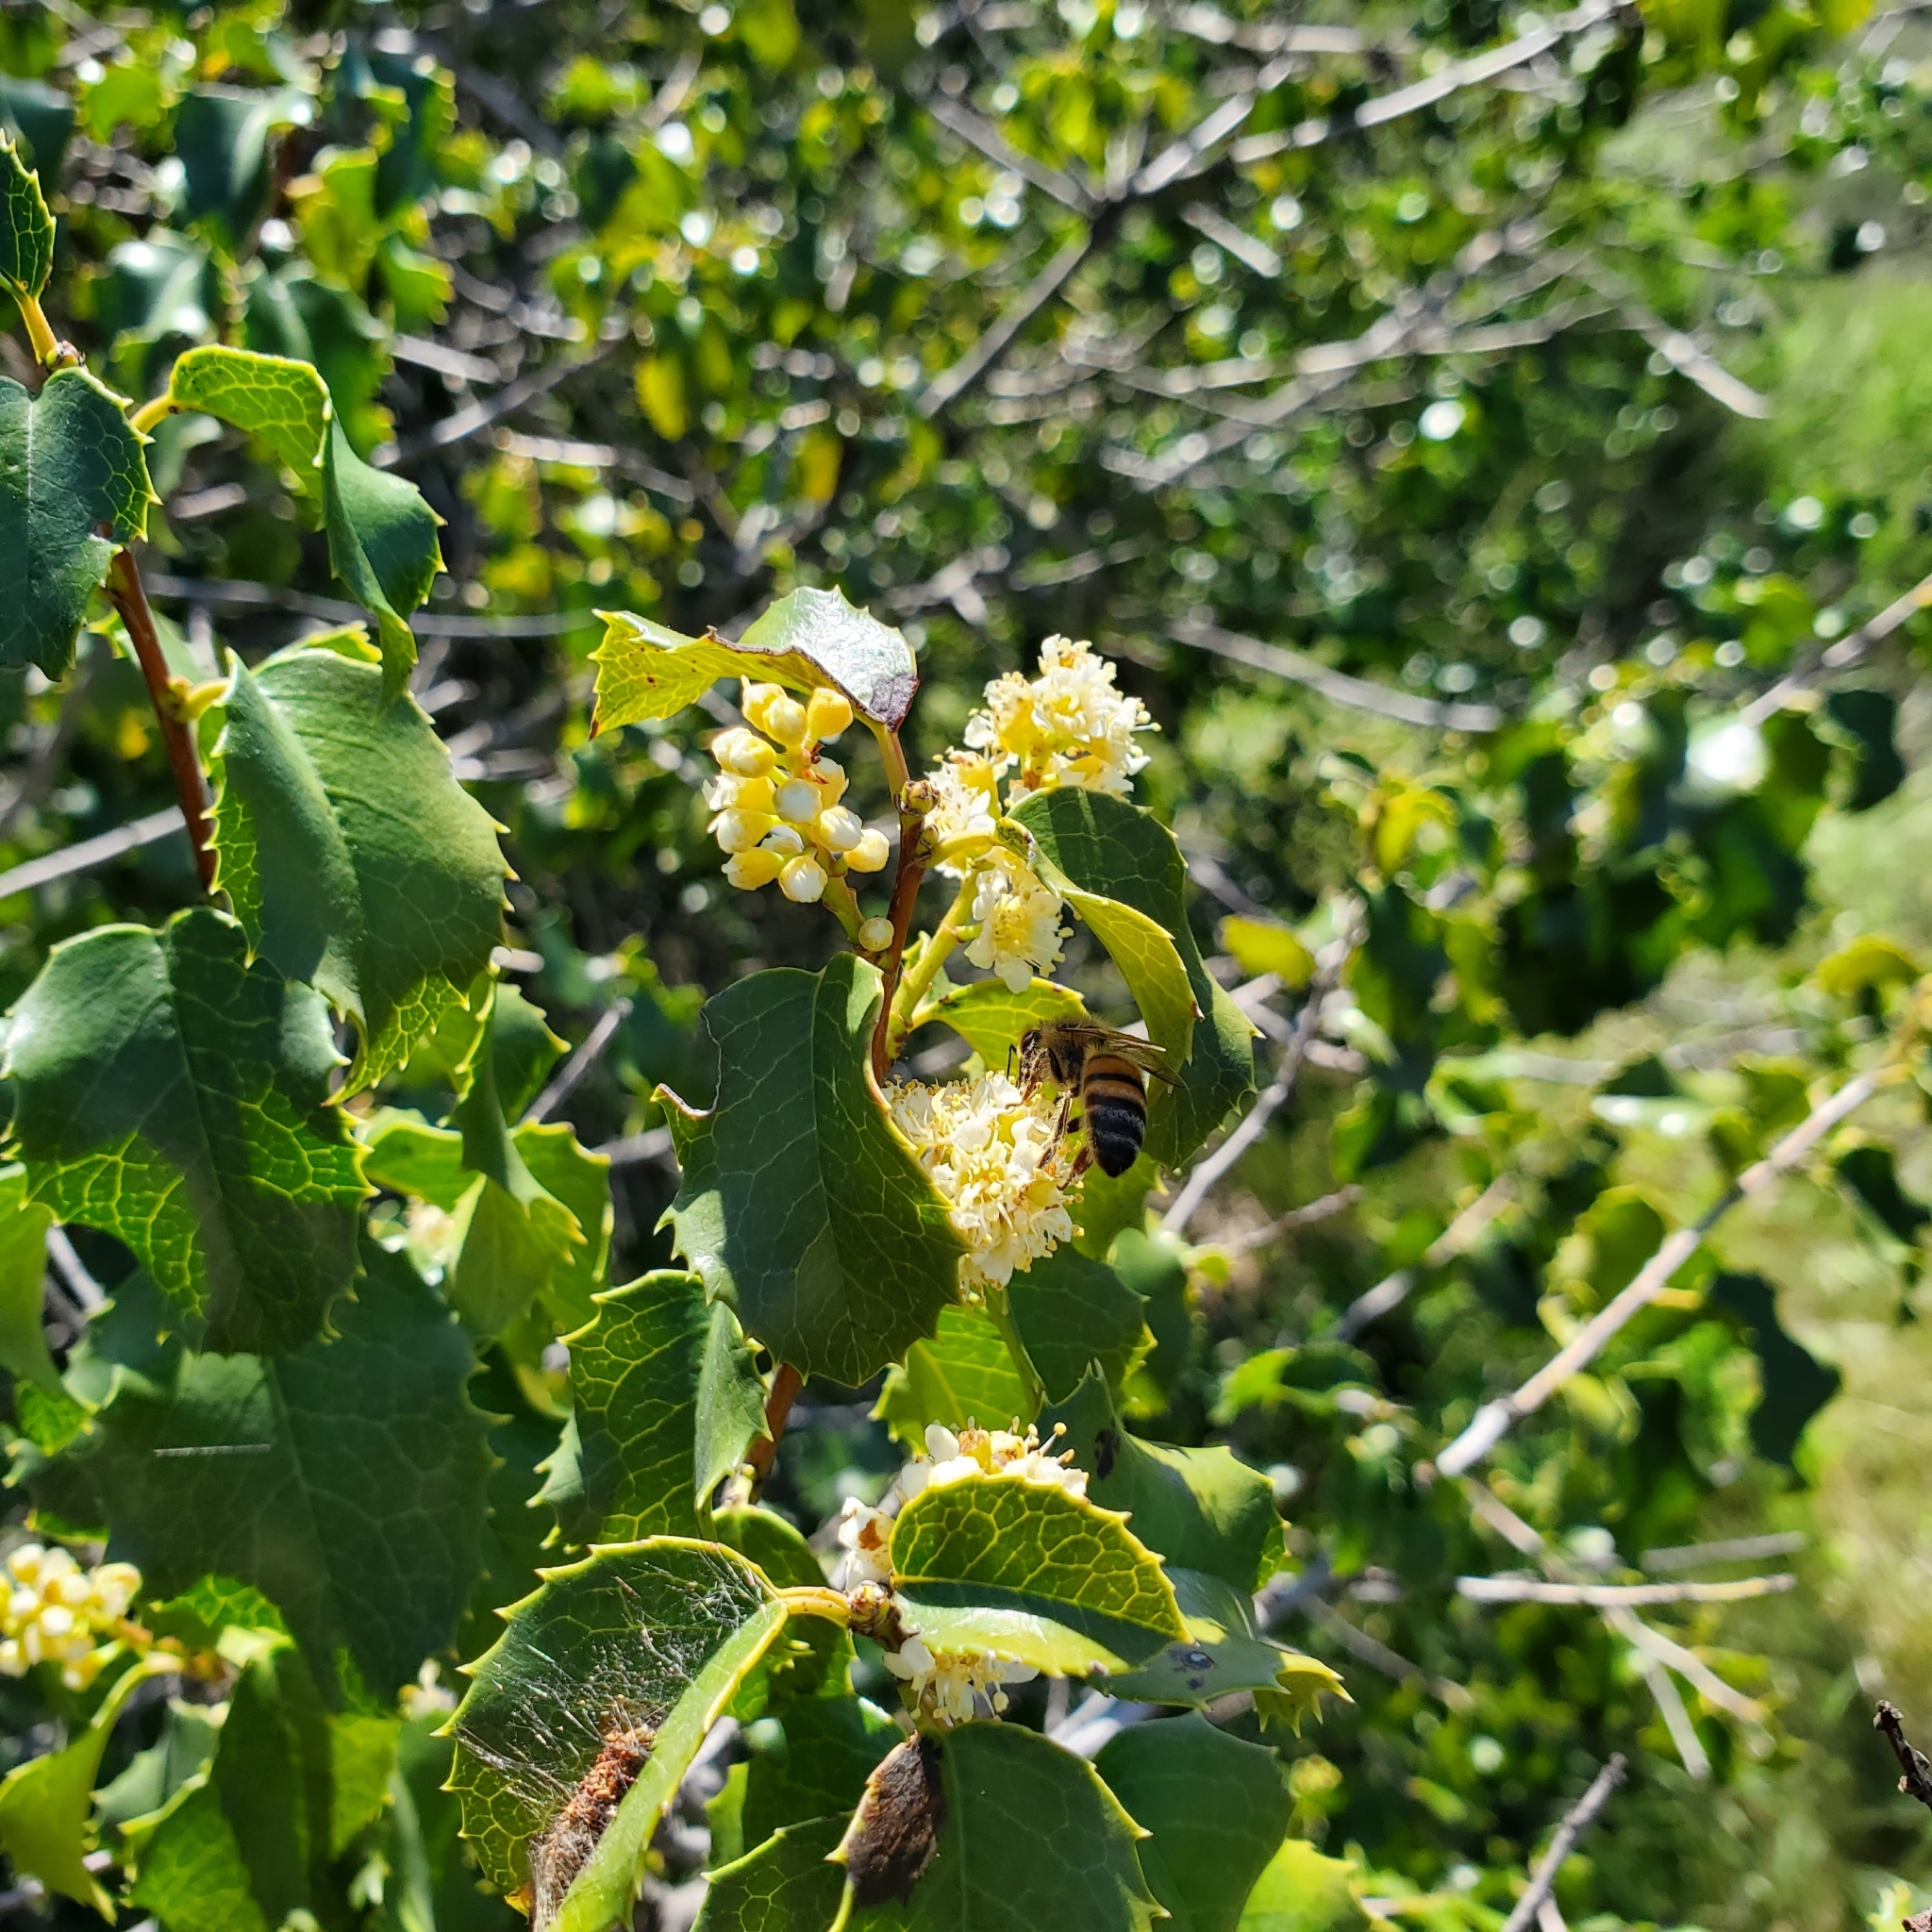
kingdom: Plantae
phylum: Tracheophyta
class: Magnoliopsida
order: Rosales
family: Rosaceae
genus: Prunus
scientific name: Prunus ilicifolia
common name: Hollyleaf cherry
